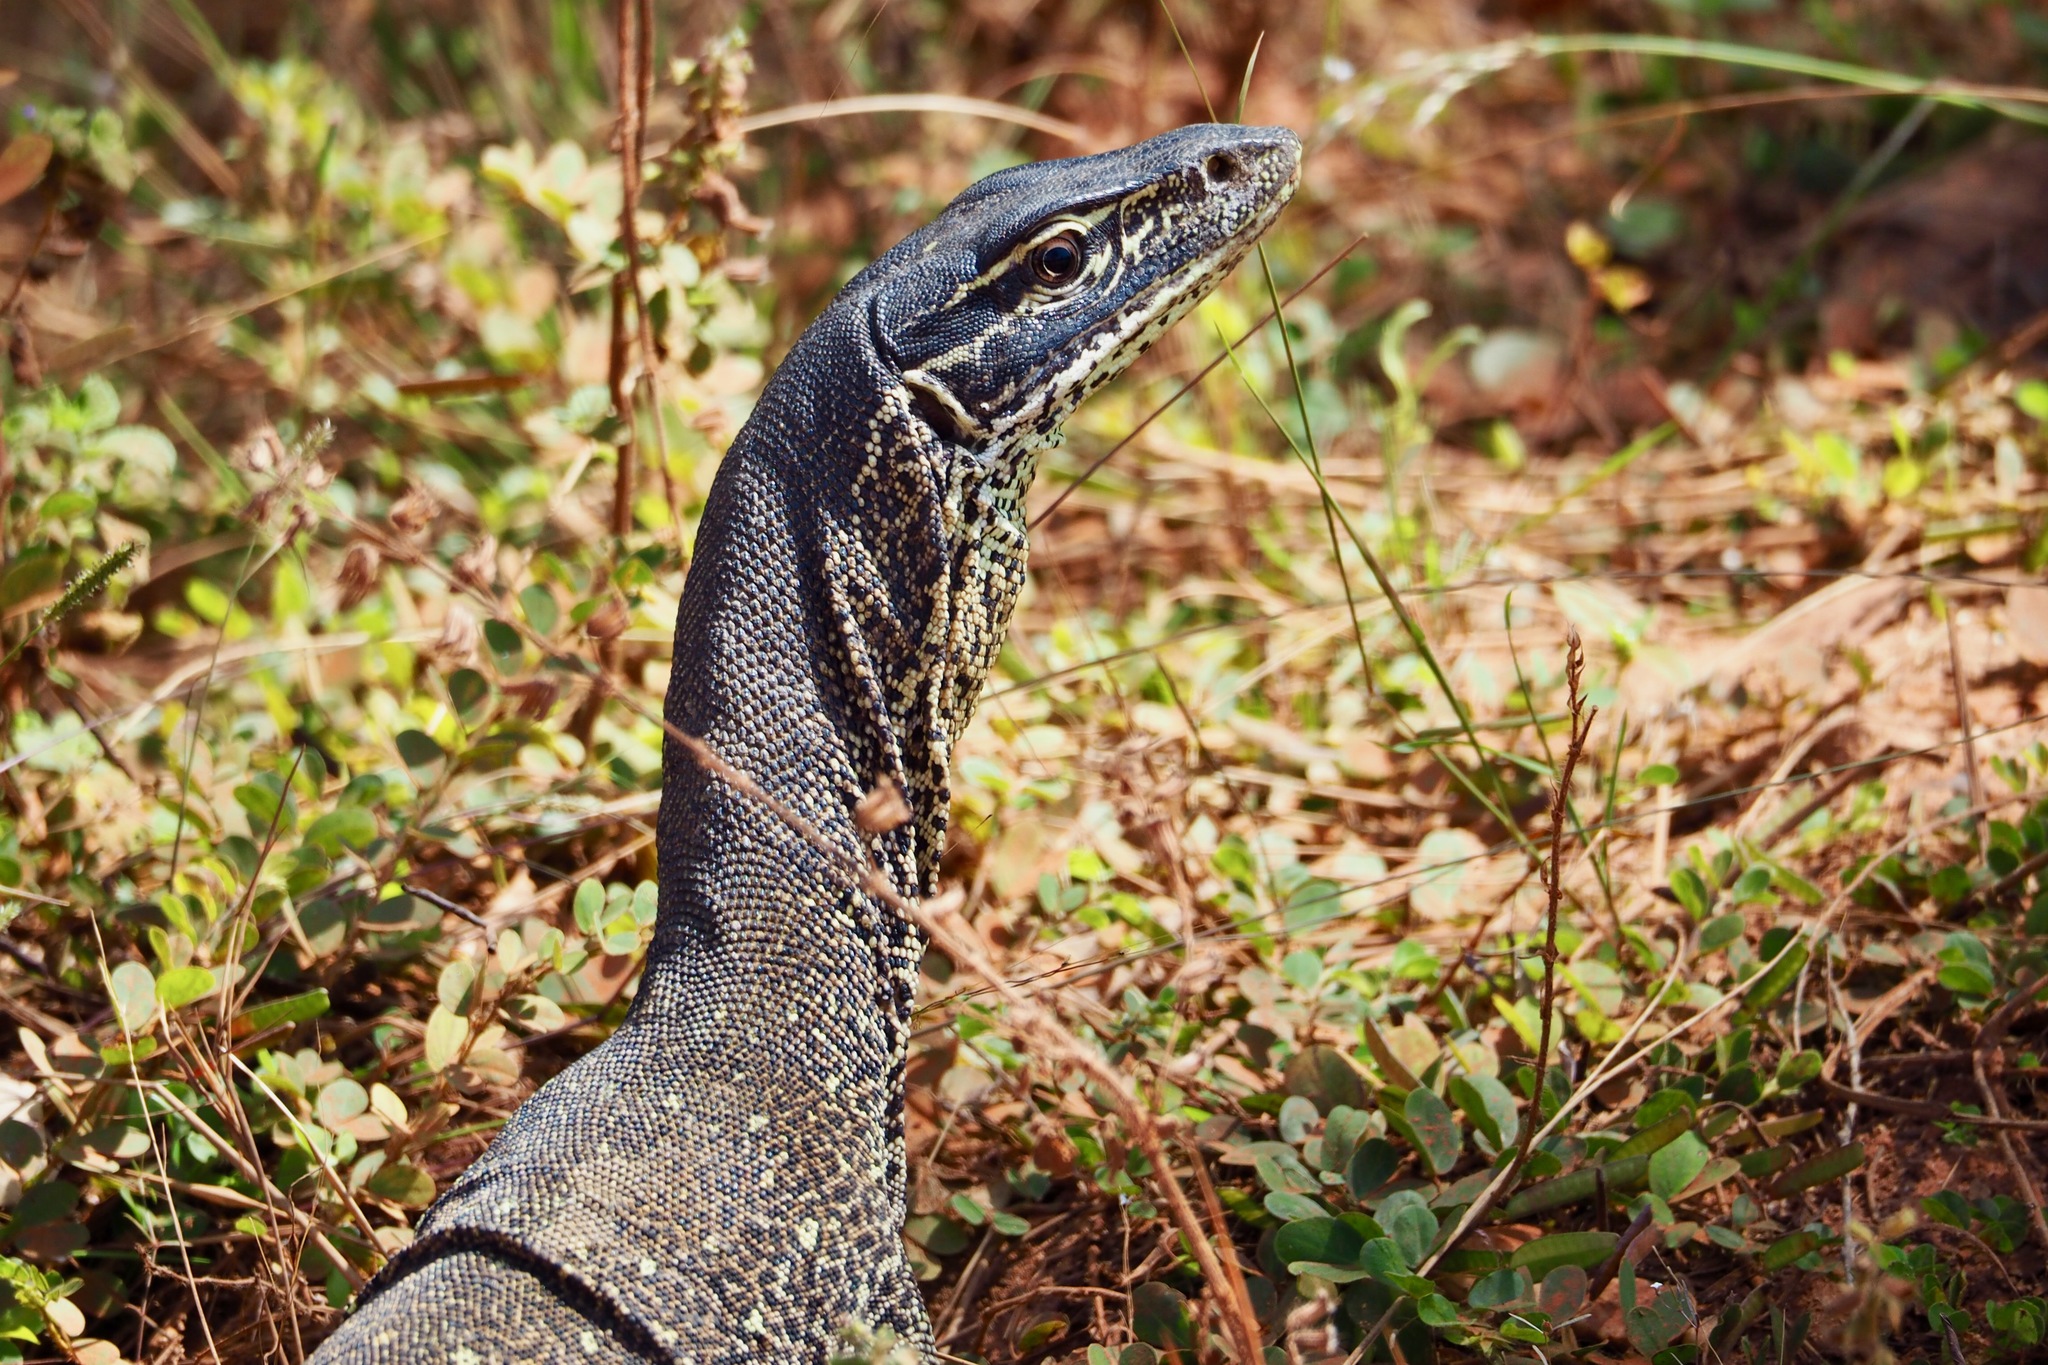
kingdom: Animalia
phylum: Chordata
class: Squamata
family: Varanidae
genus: Varanus
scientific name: Varanus panoptes
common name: Yellow-spotted monitor
